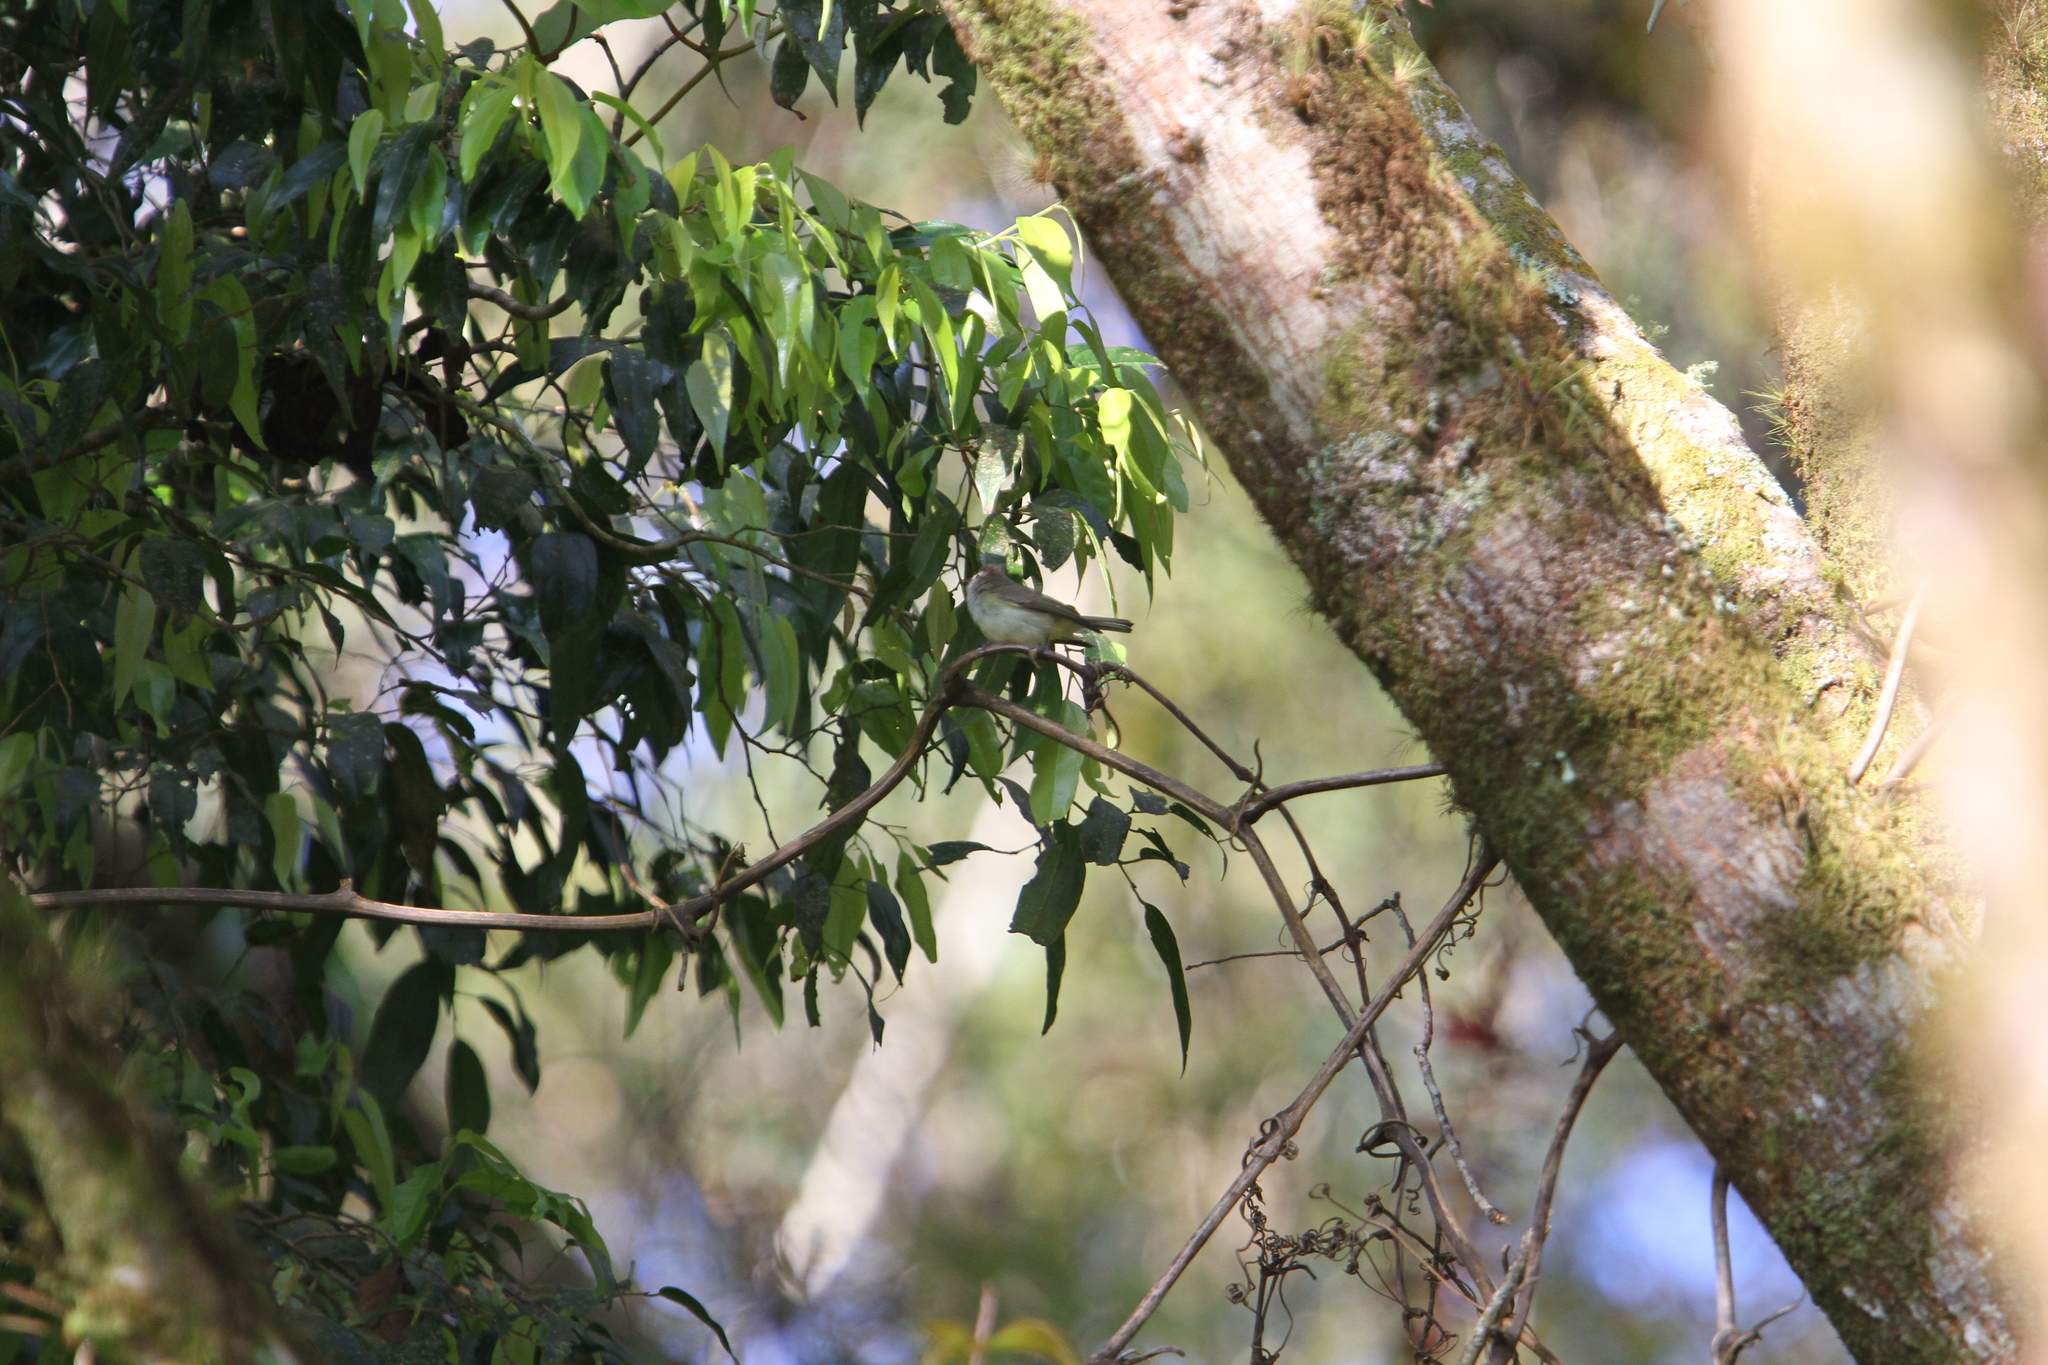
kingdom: Animalia
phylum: Chordata
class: Aves
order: Passeriformes
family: Vireonidae
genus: Vireo
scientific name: Vireo leucophrys
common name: Brown-capped vireo
